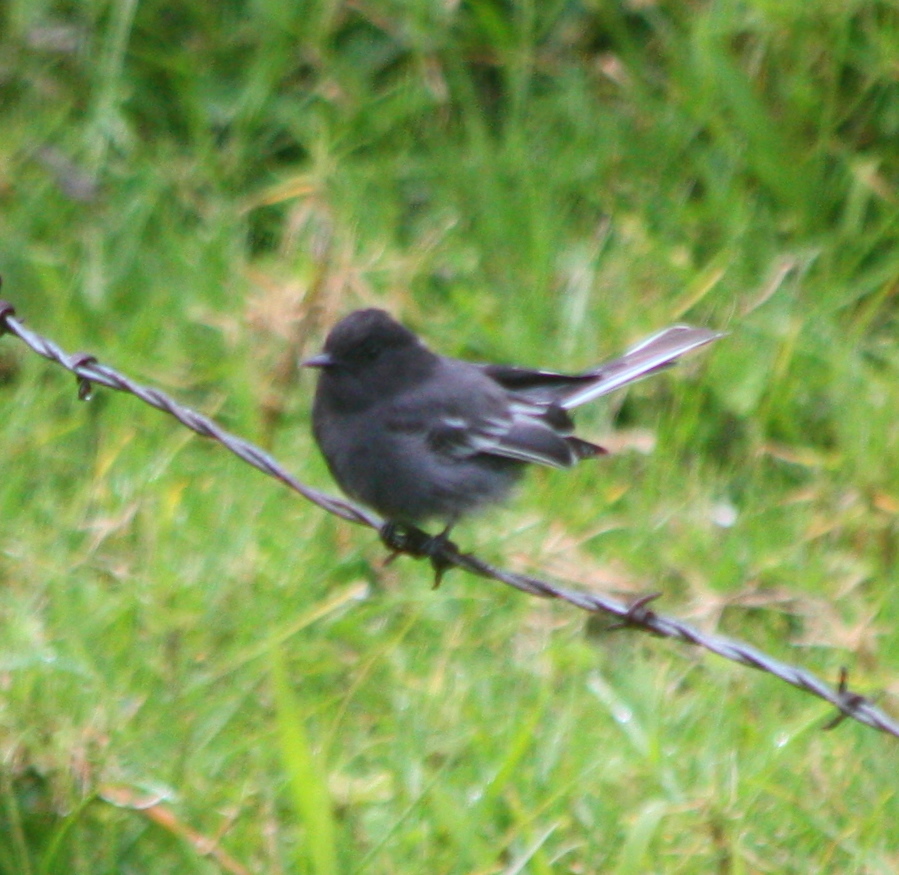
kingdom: Animalia
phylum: Chordata
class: Aves
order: Passeriformes
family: Tyrannidae
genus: Sayornis
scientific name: Sayornis nigricans
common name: Black phoebe
